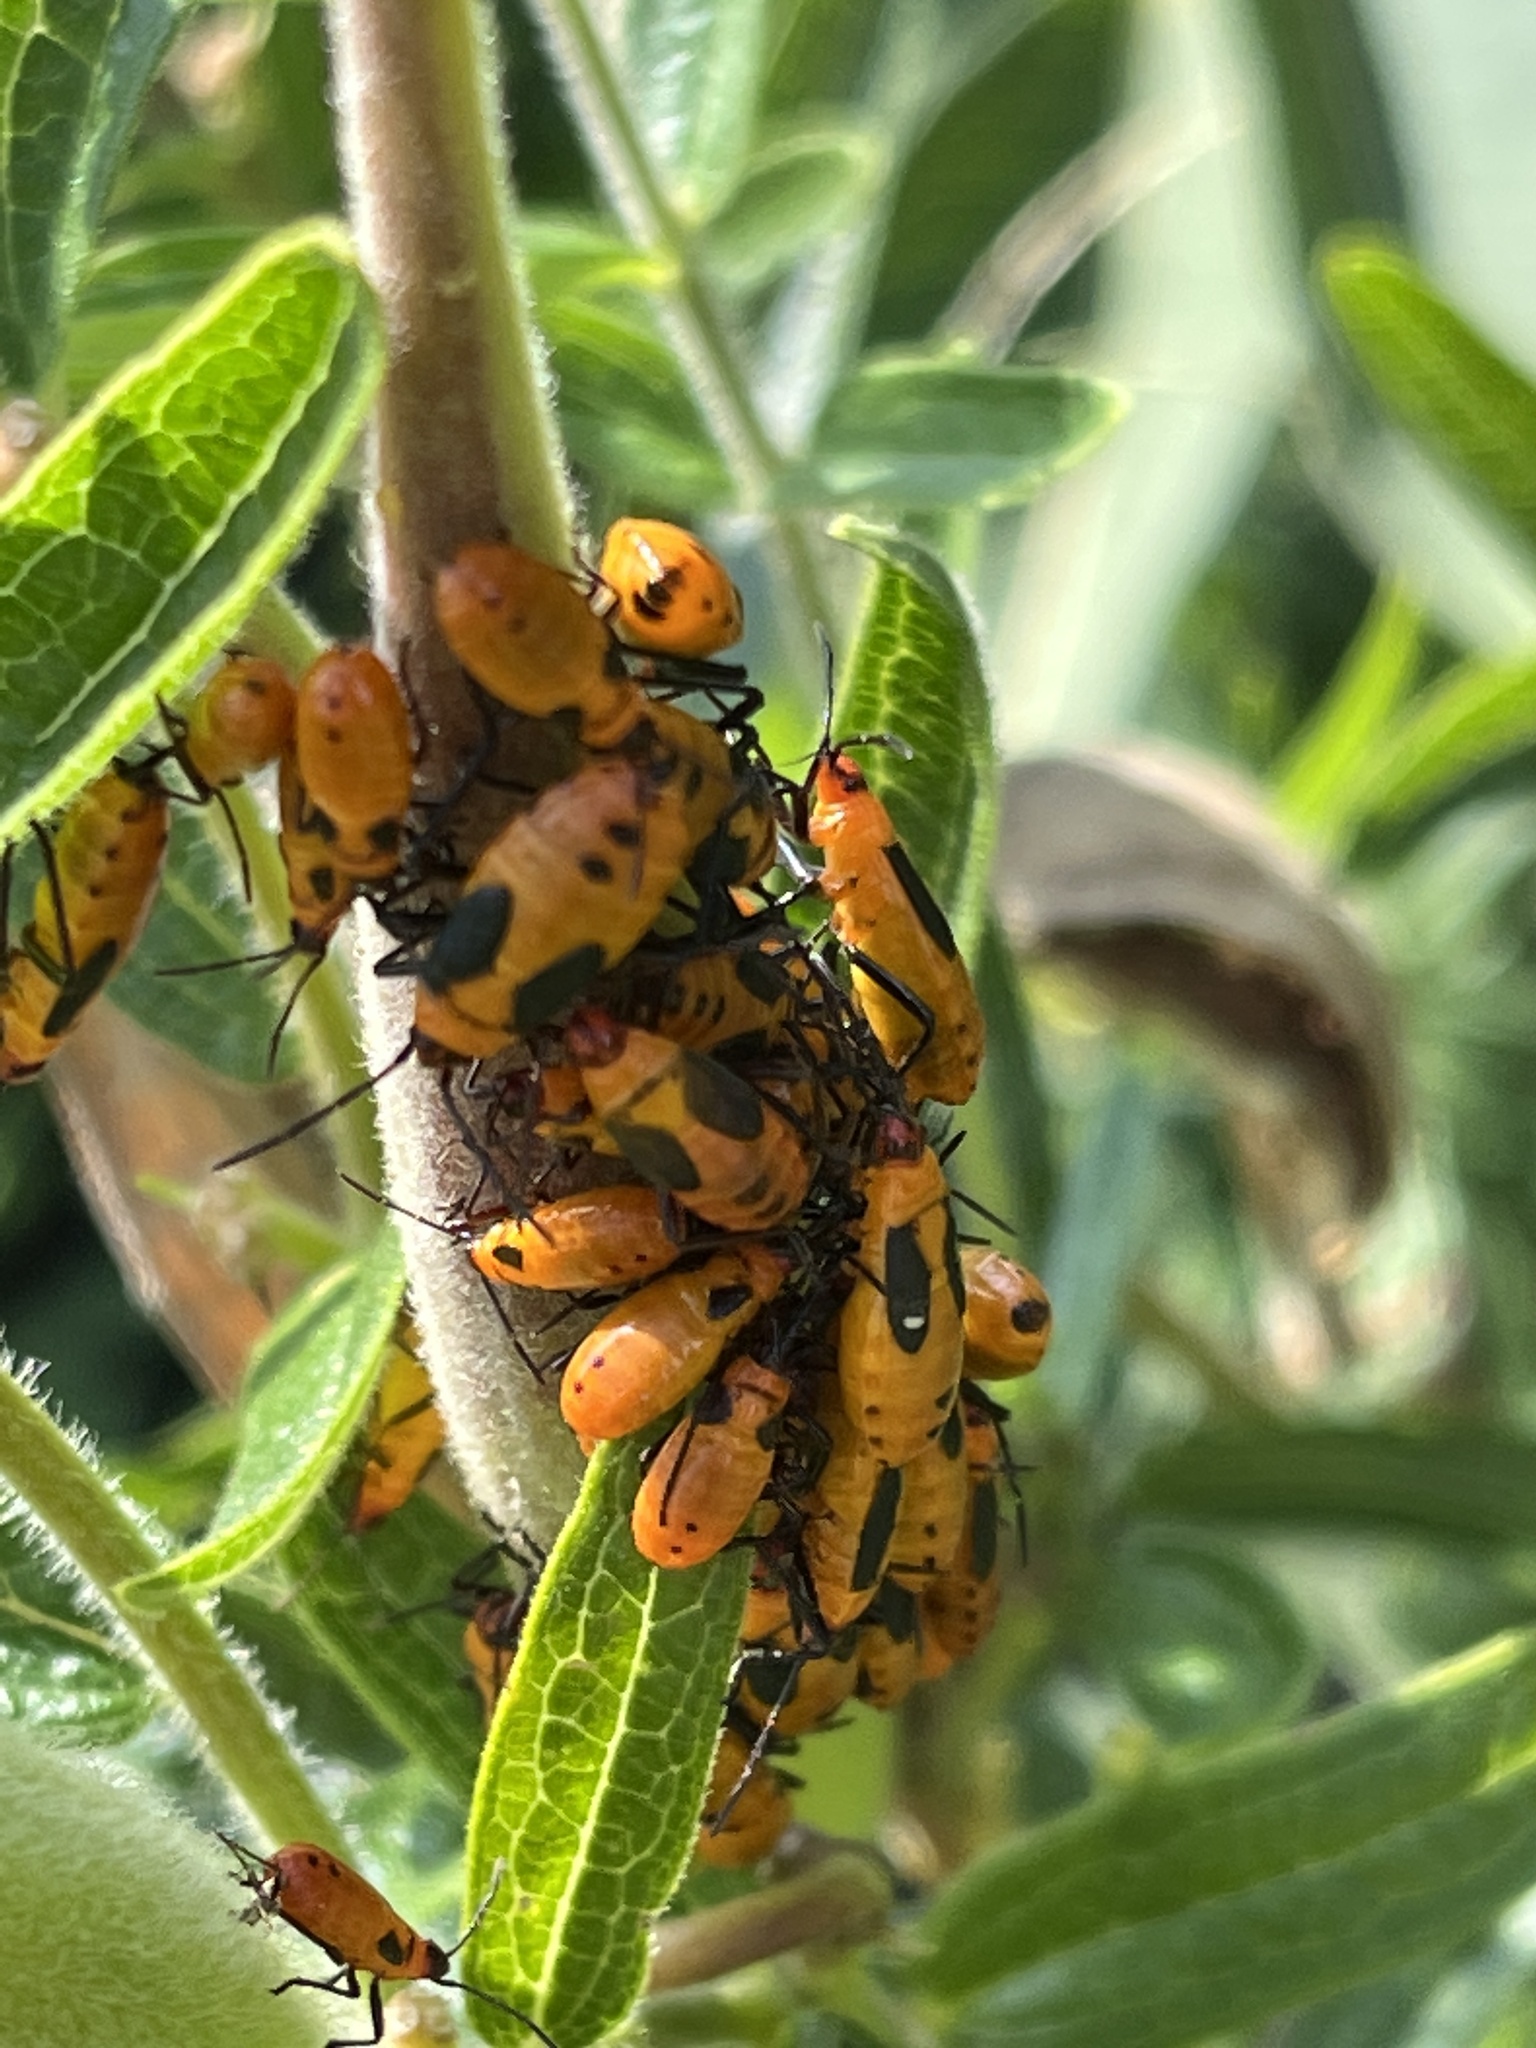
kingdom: Animalia
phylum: Arthropoda
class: Insecta
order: Hemiptera
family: Lygaeidae
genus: Oncopeltus
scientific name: Oncopeltus fasciatus
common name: Large milkweed bug
